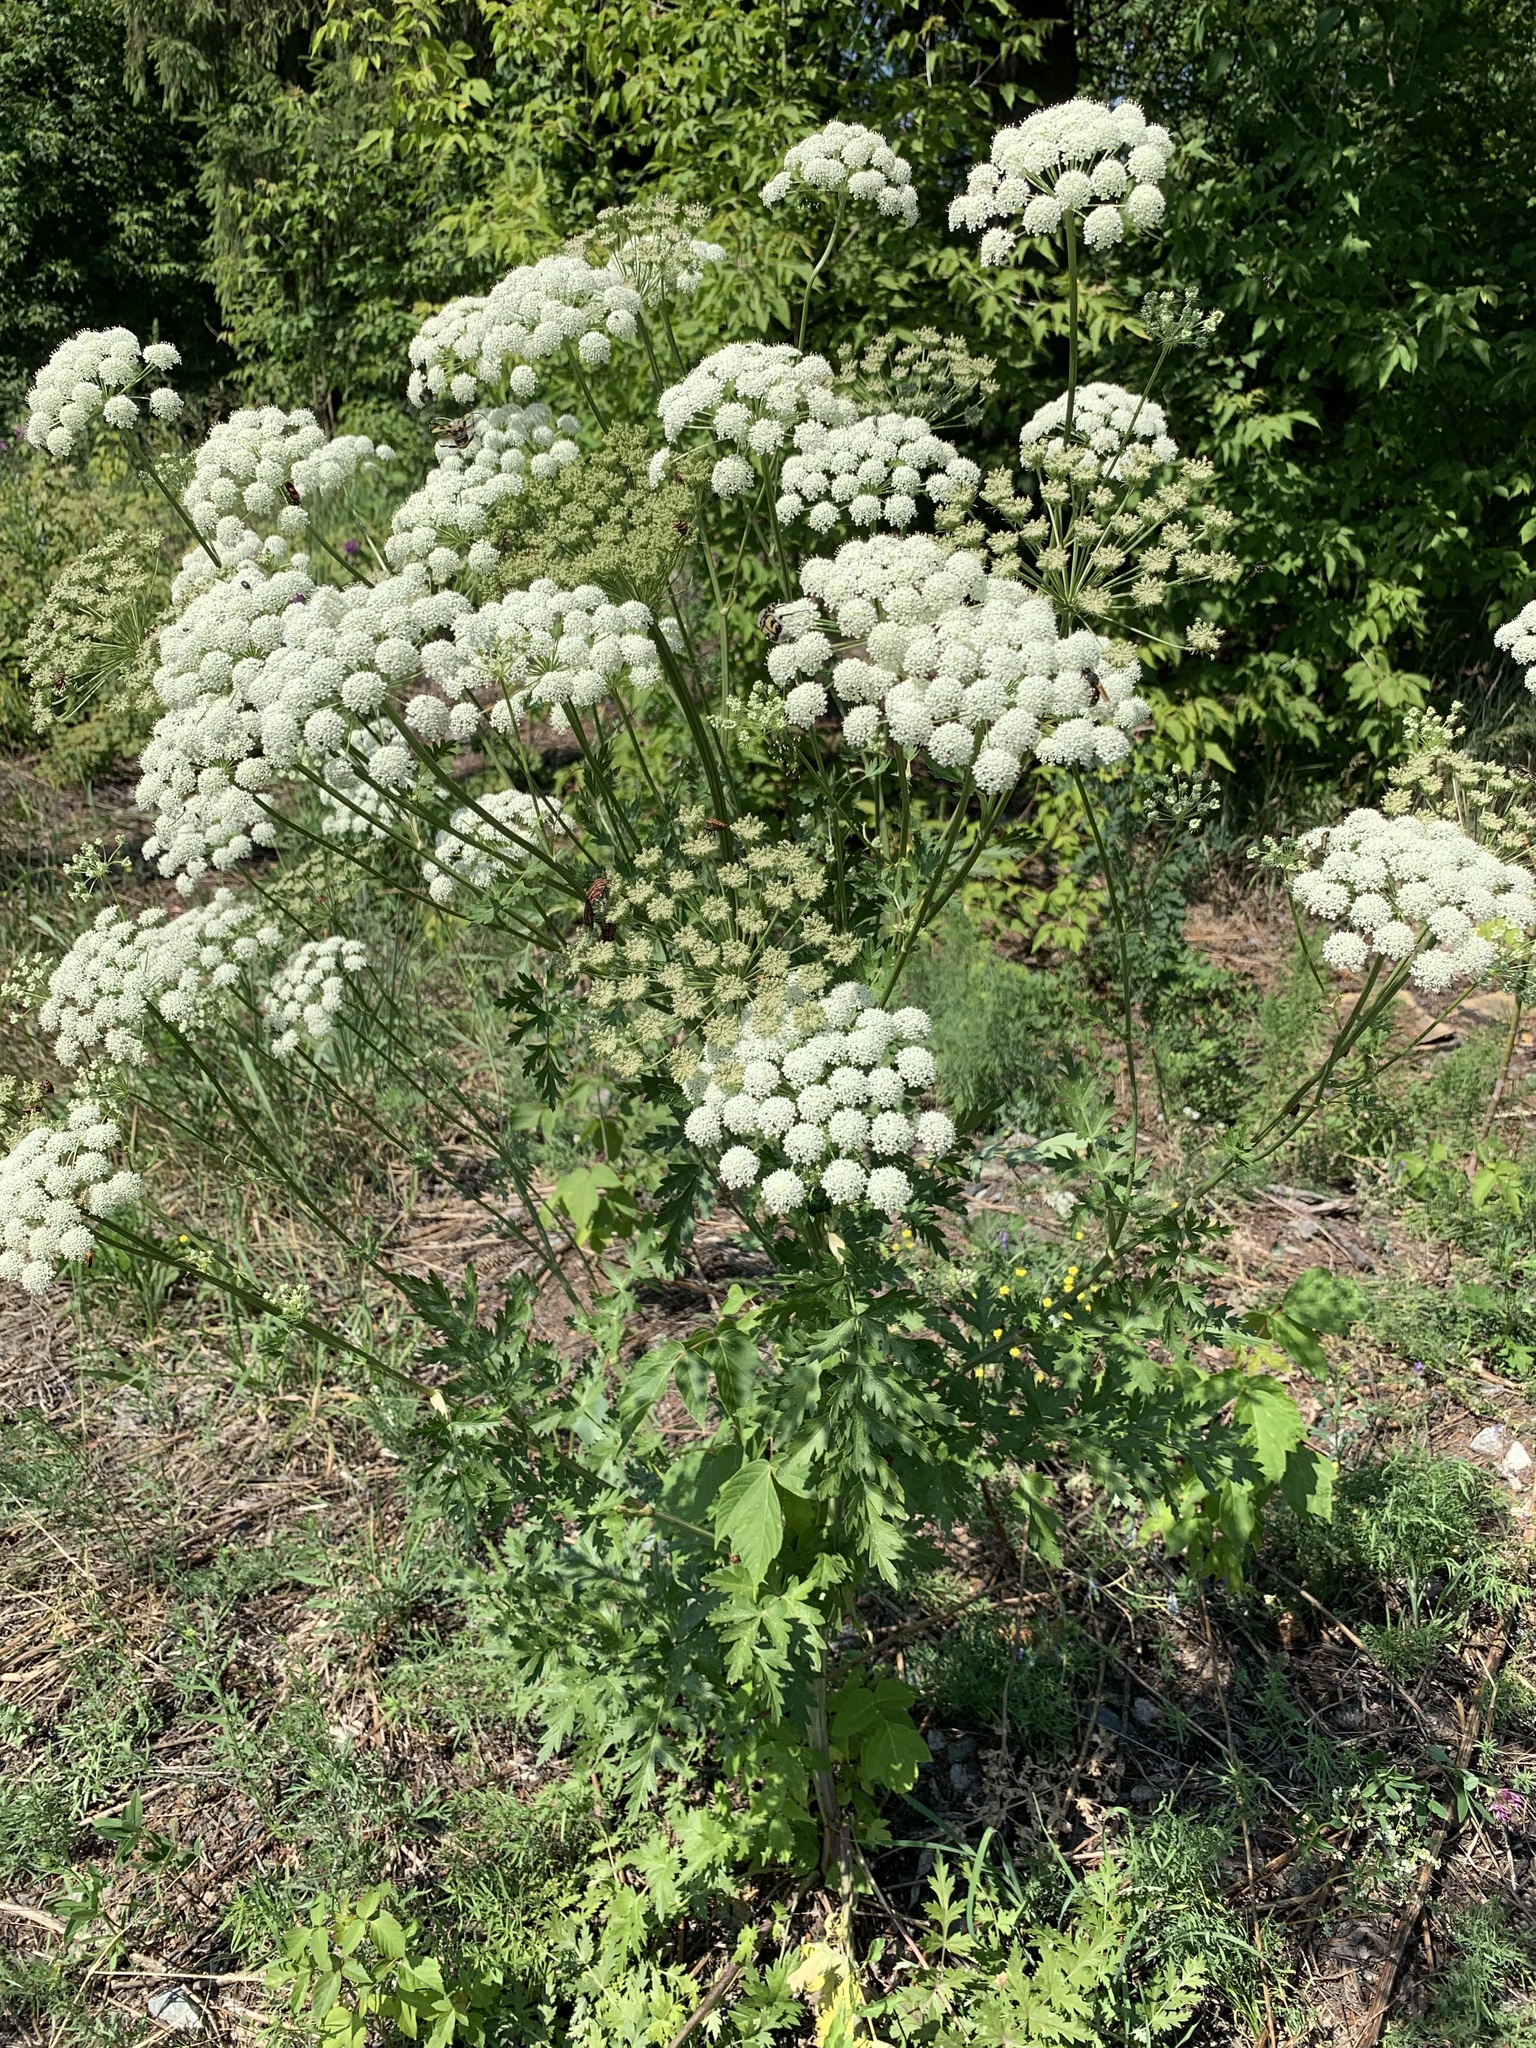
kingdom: Plantae
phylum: Tracheophyta
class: Magnoliopsida
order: Apiales
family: Apiaceae
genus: Seseli
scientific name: Seseli libanotis
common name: Mooncarrot
